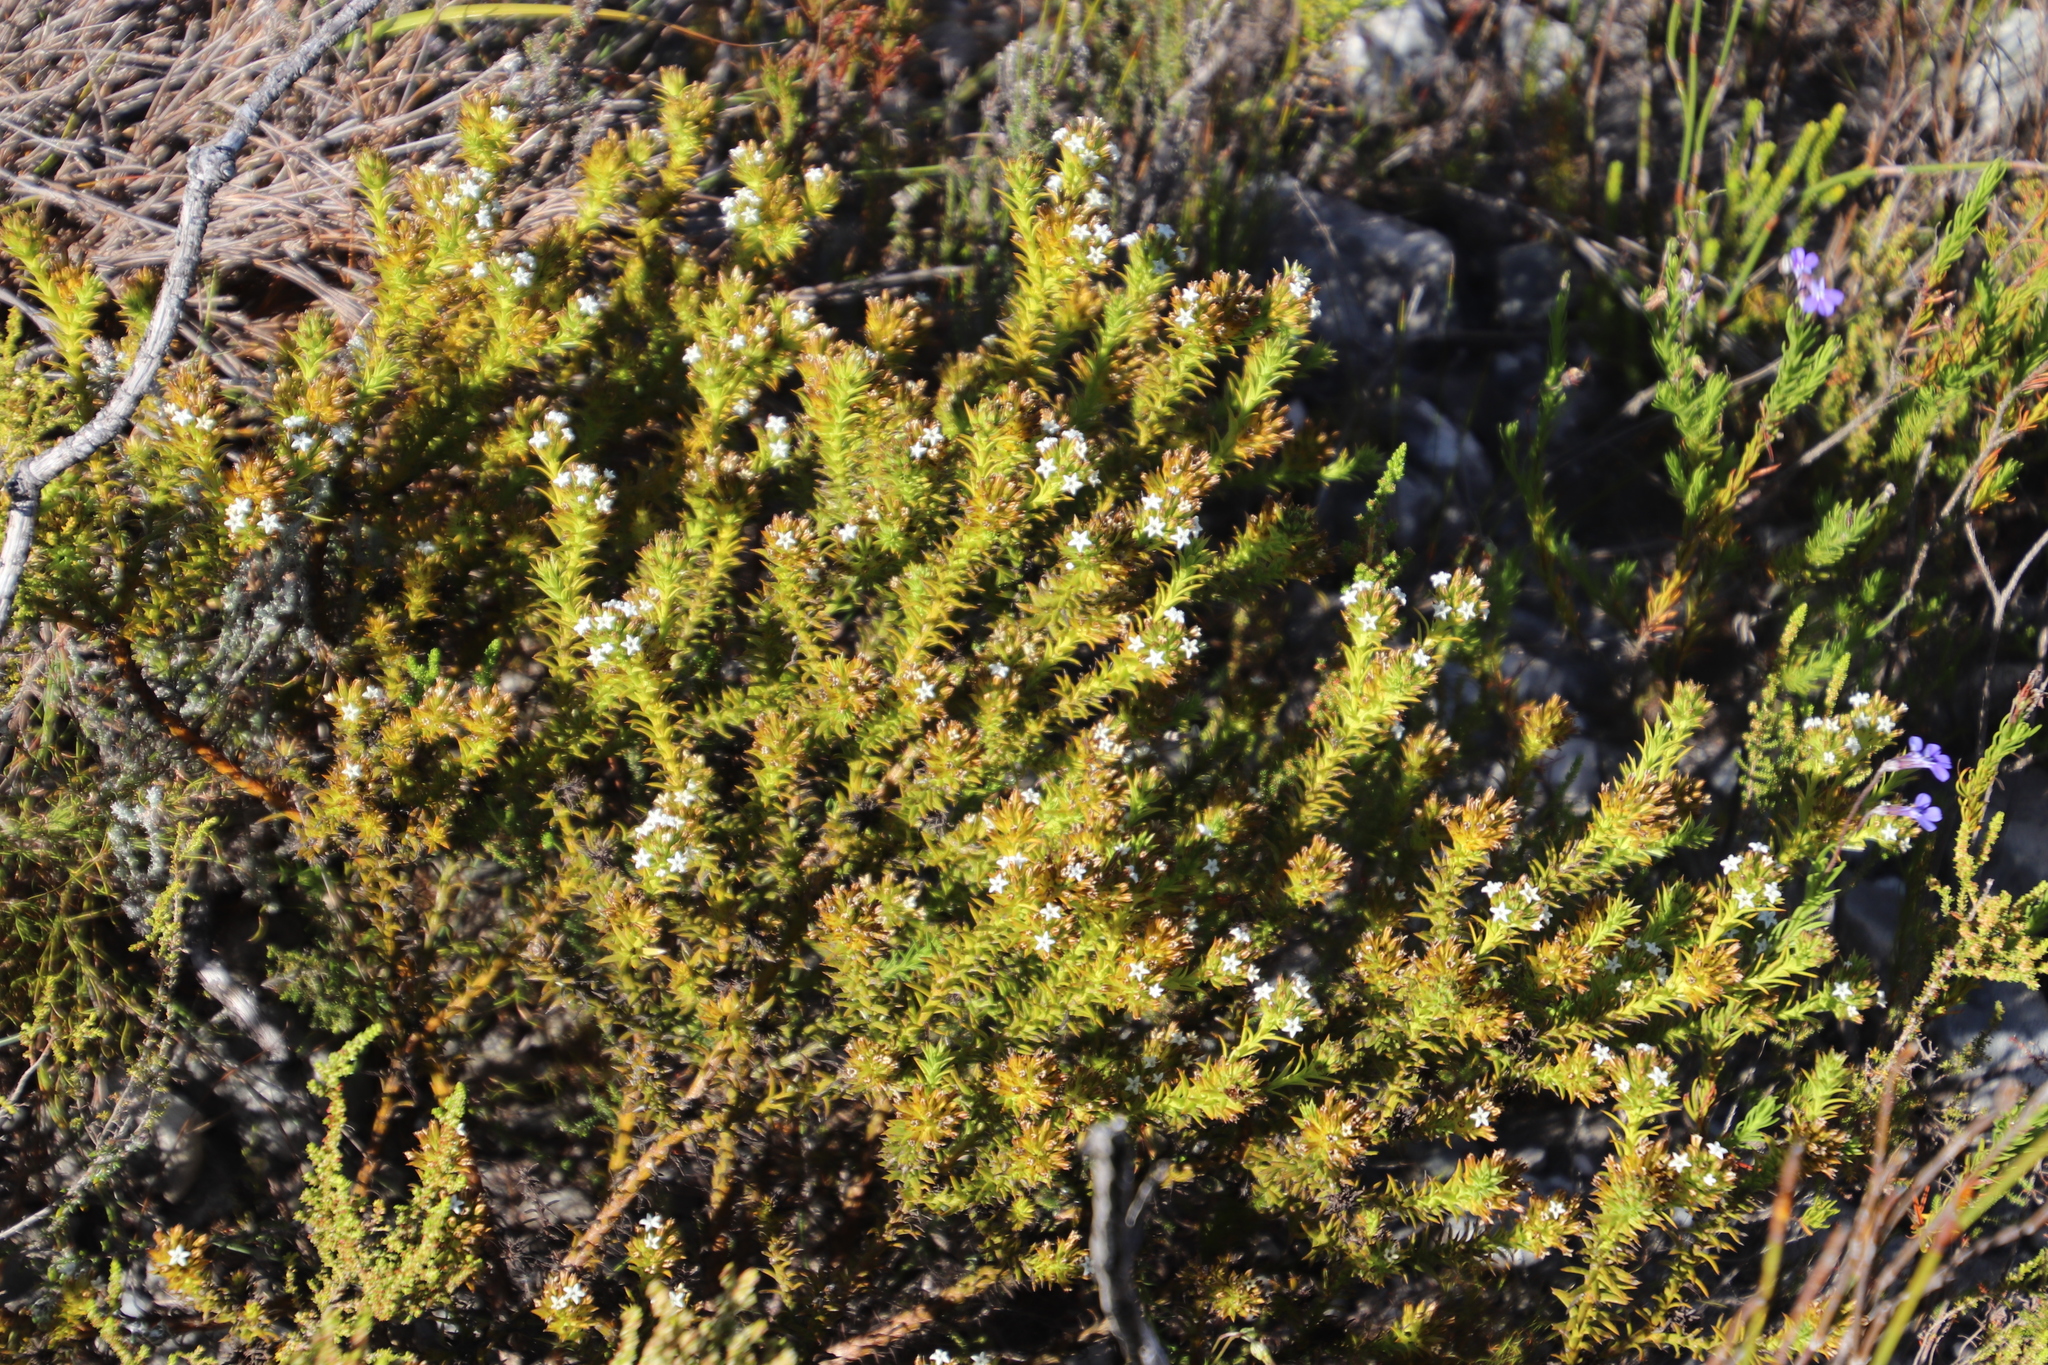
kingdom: Plantae
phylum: Tracheophyta
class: Magnoliopsida
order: Santalales
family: Thesiaceae
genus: Thesium
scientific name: Thesium viridifolium
